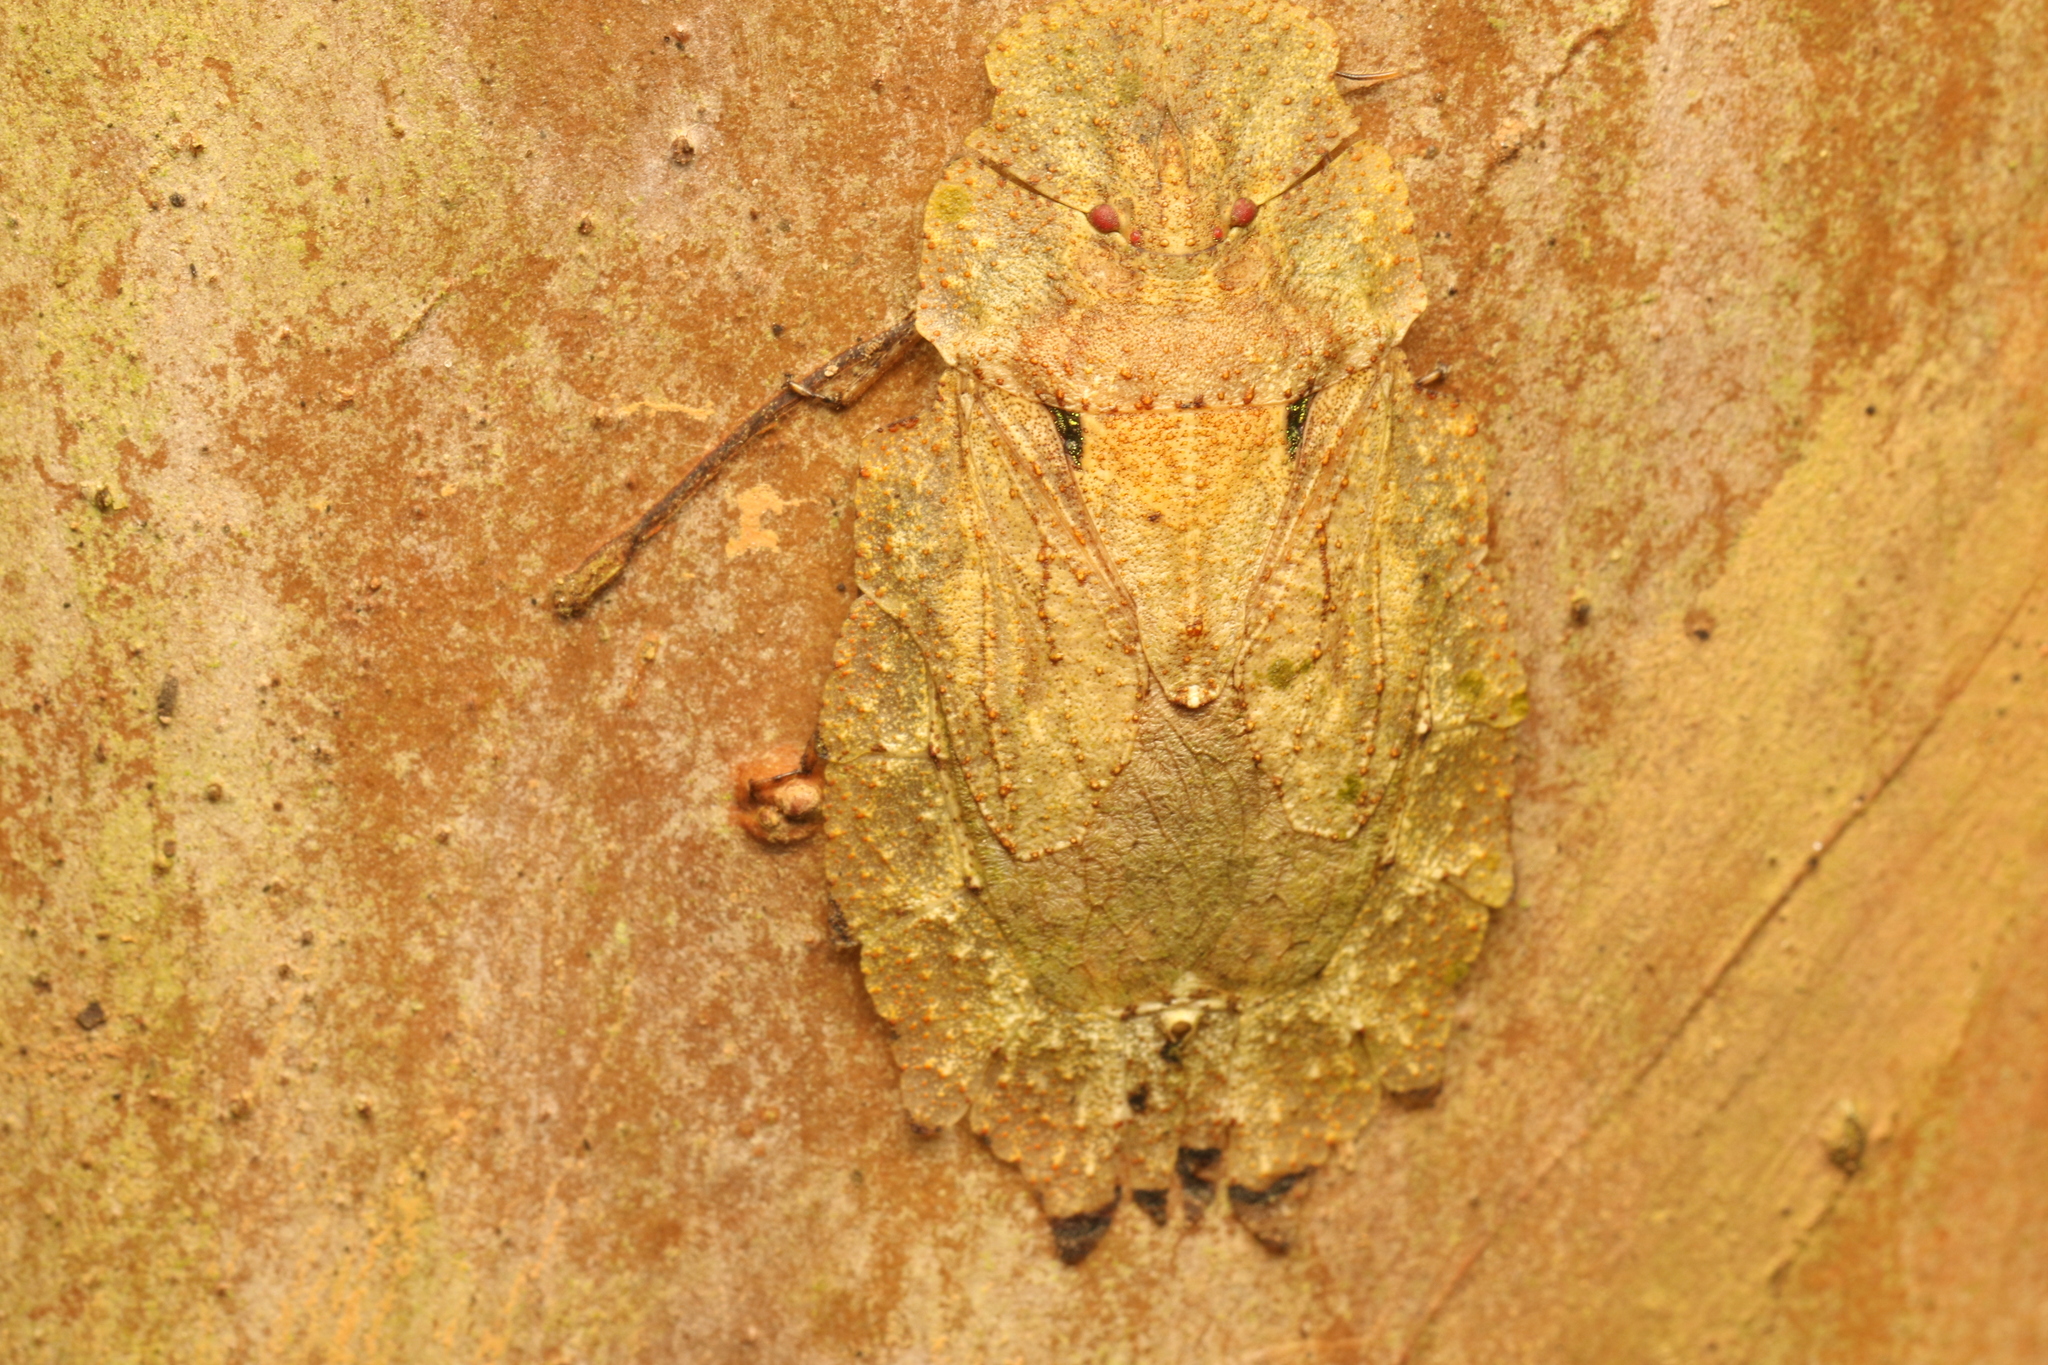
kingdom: Animalia
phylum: Arthropoda
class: Insecta
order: Hemiptera
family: Phleides
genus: Phloea
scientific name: Phloea
